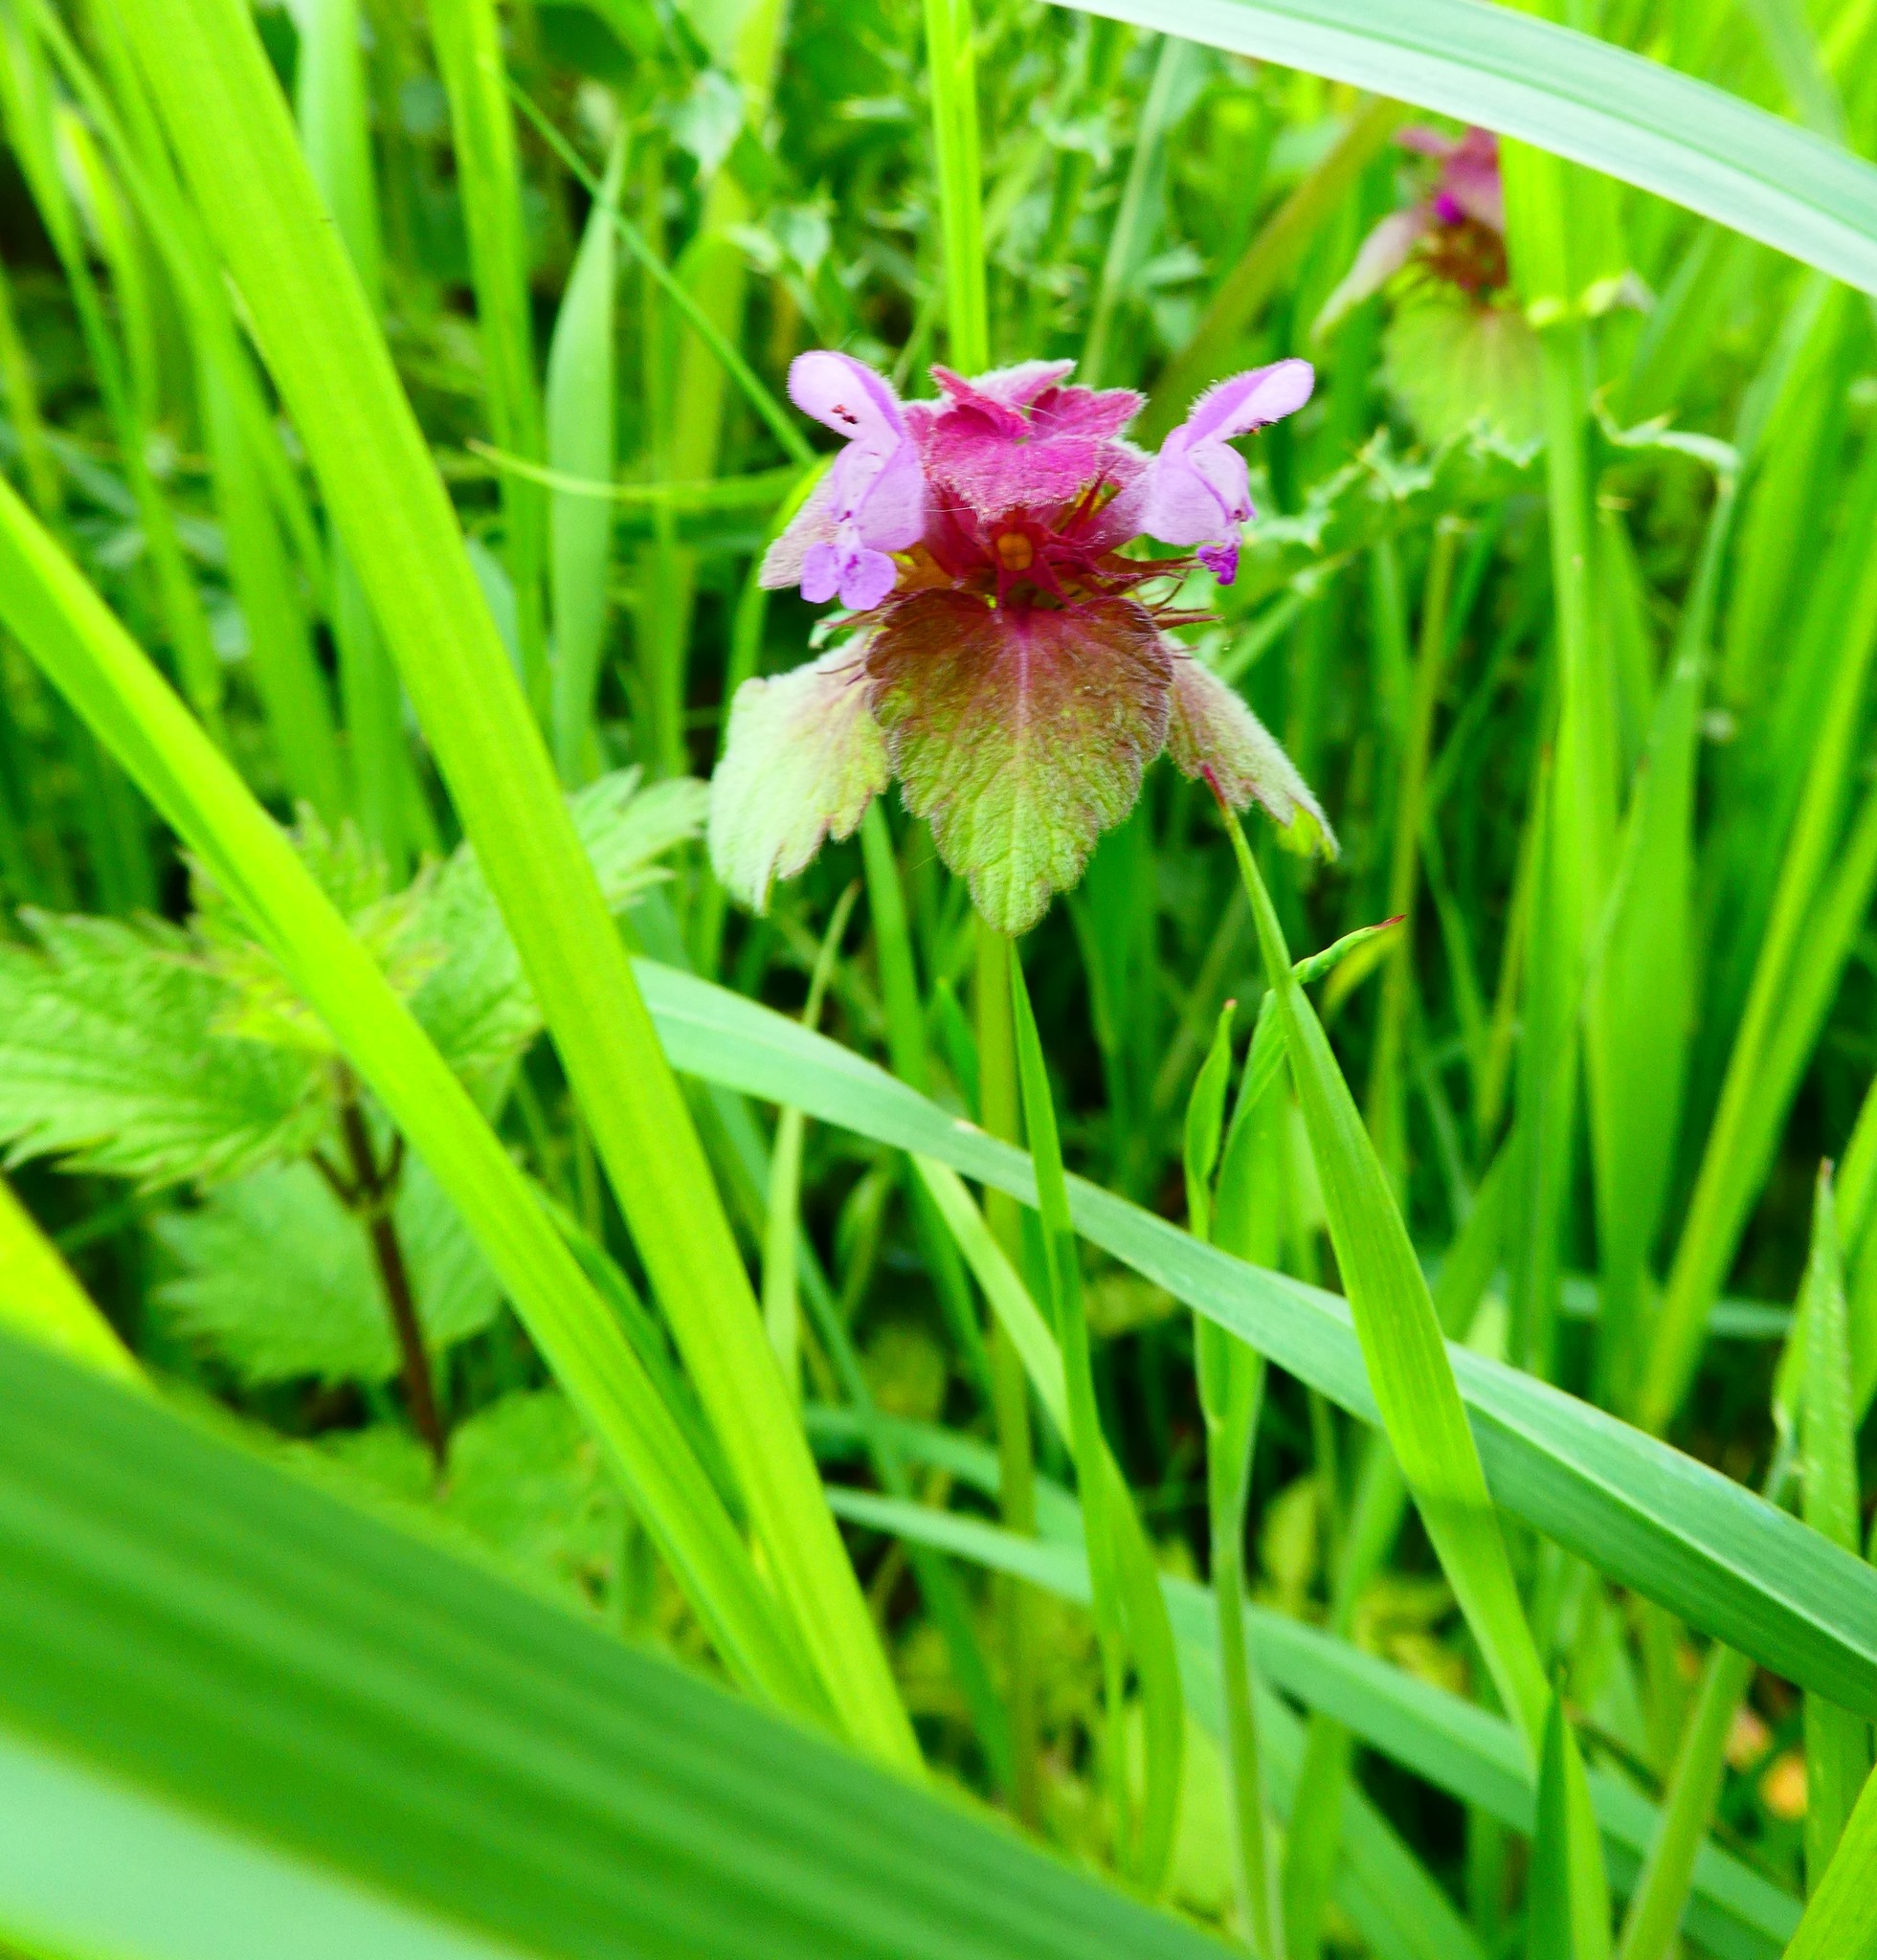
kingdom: Plantae
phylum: Tracheophyta
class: Magnoliopsida
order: Lamiales
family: Lamiaceae
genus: Lamium
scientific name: Lamium purpureum
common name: Red dead-nettle
